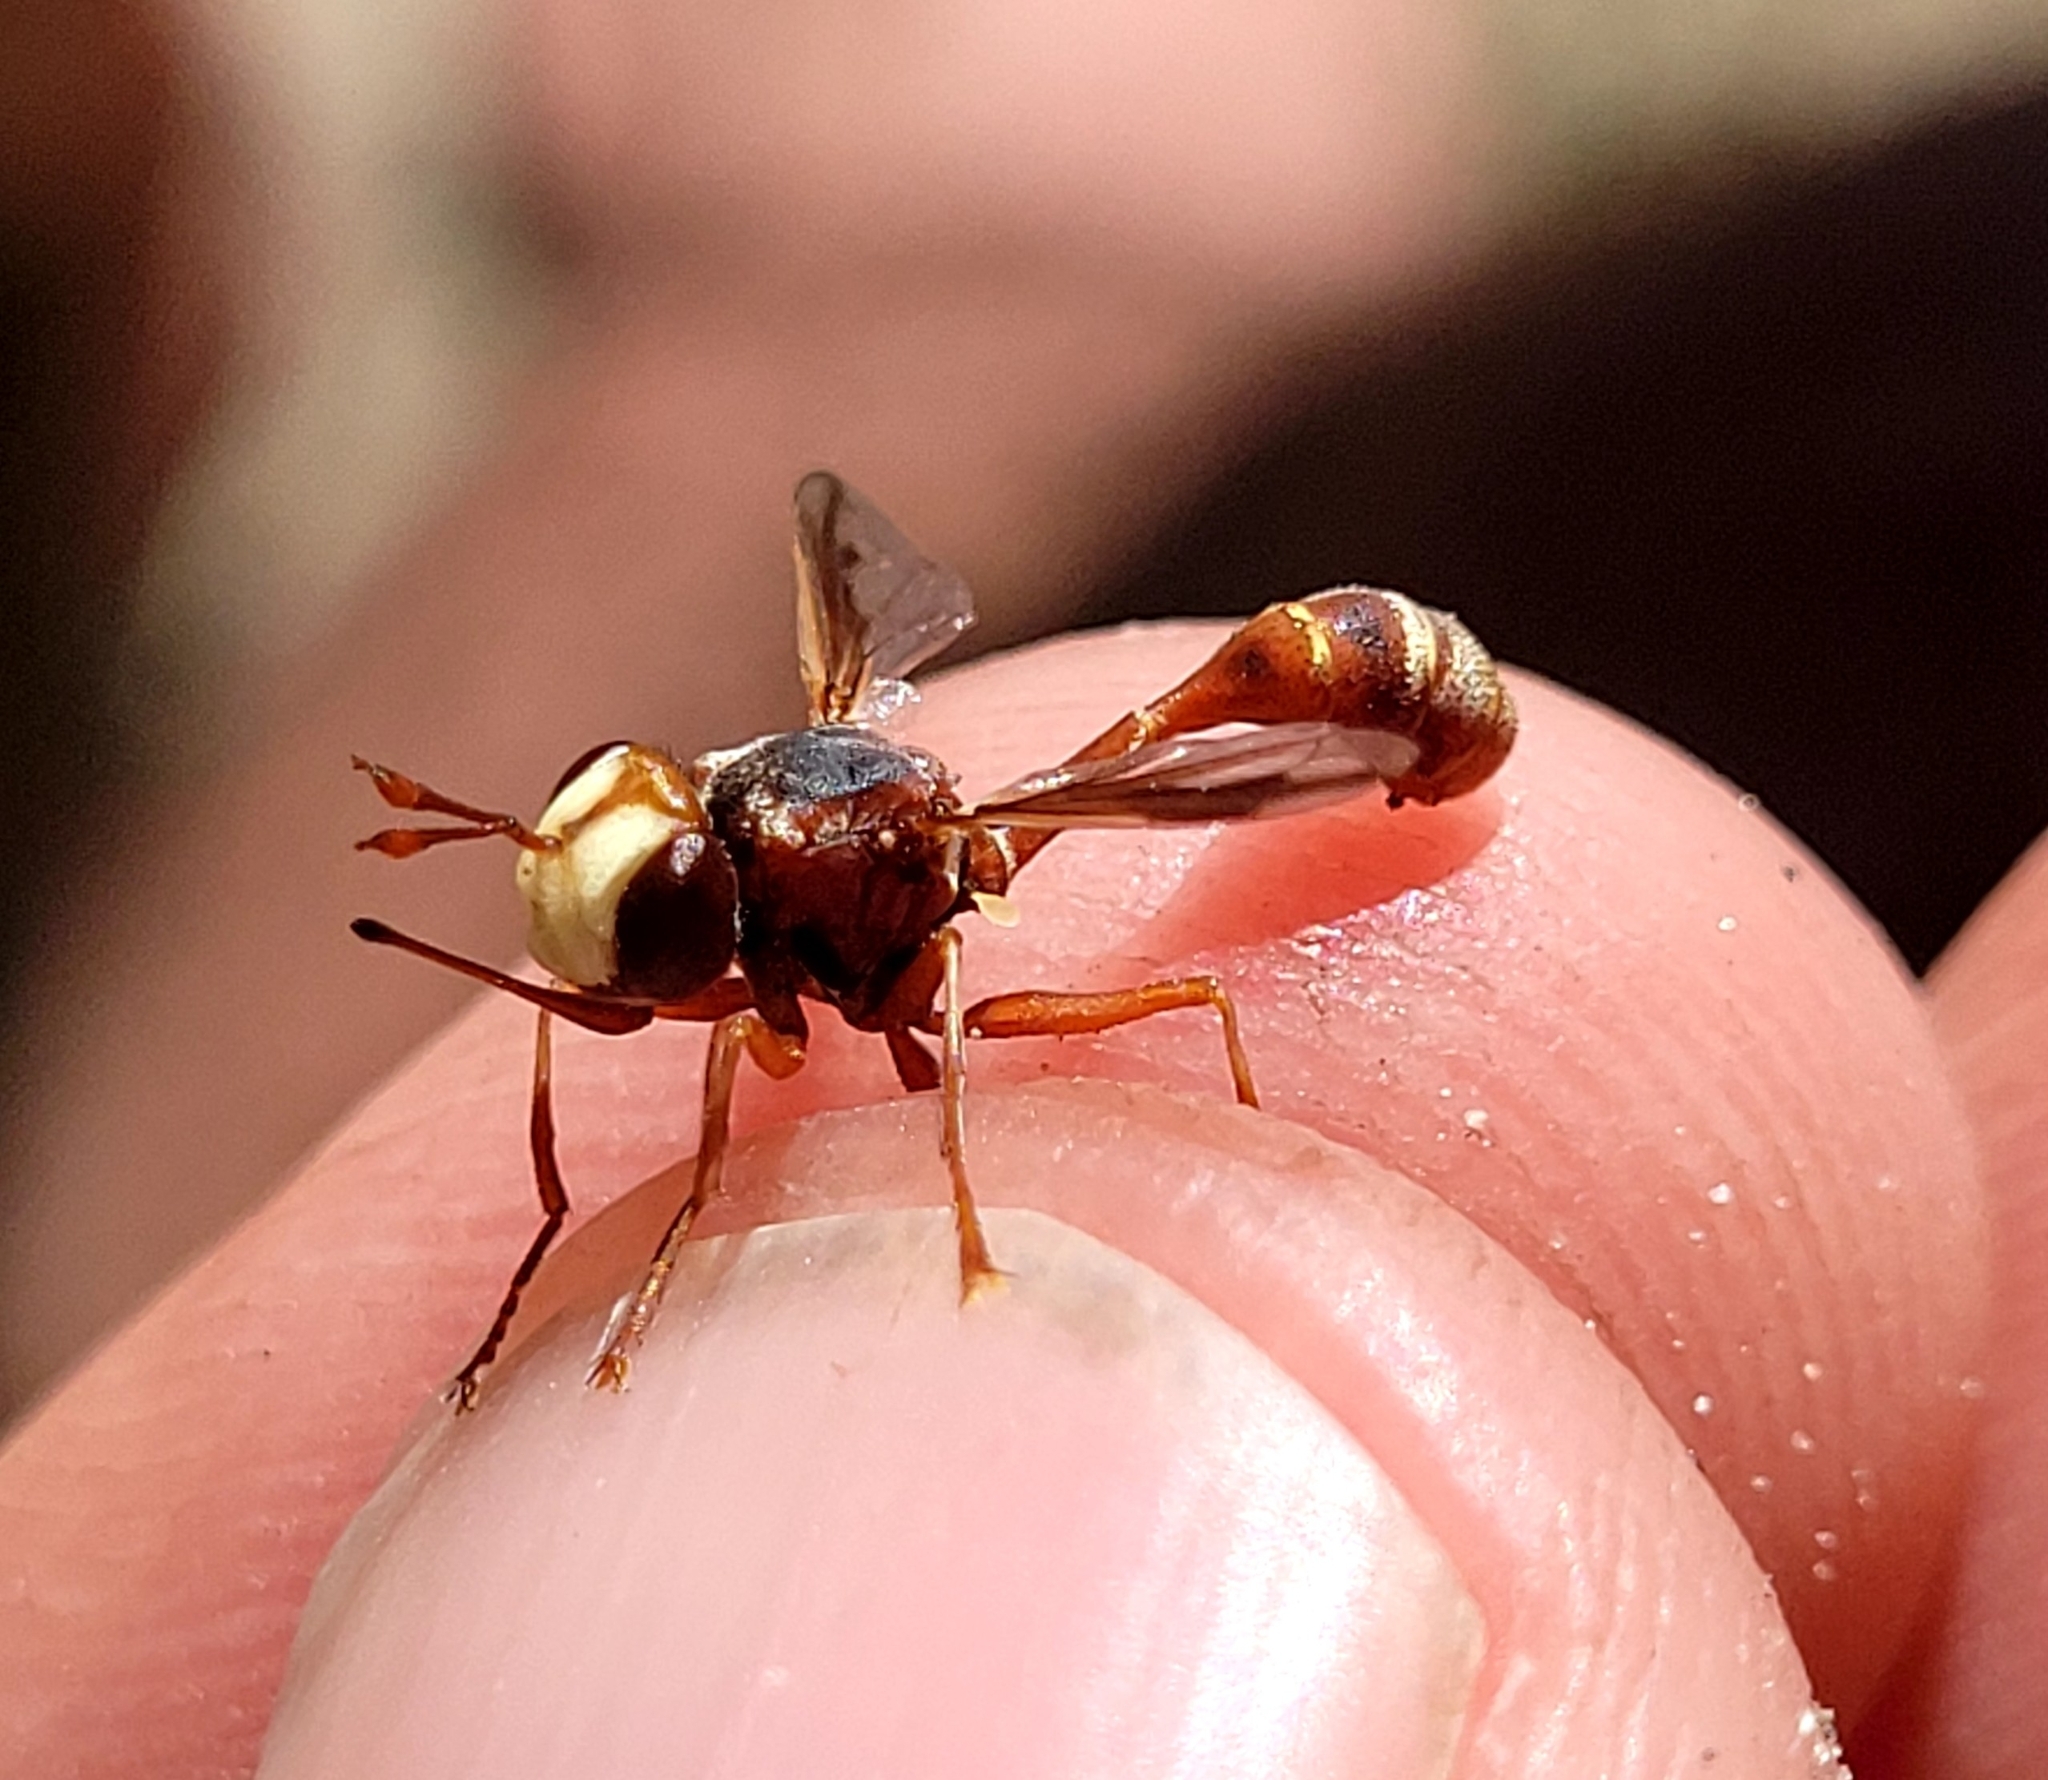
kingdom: Animalia
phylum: Arthropoda
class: Insecta
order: Diptera
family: Conopidae
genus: Physocephala
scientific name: Physocephala texana
